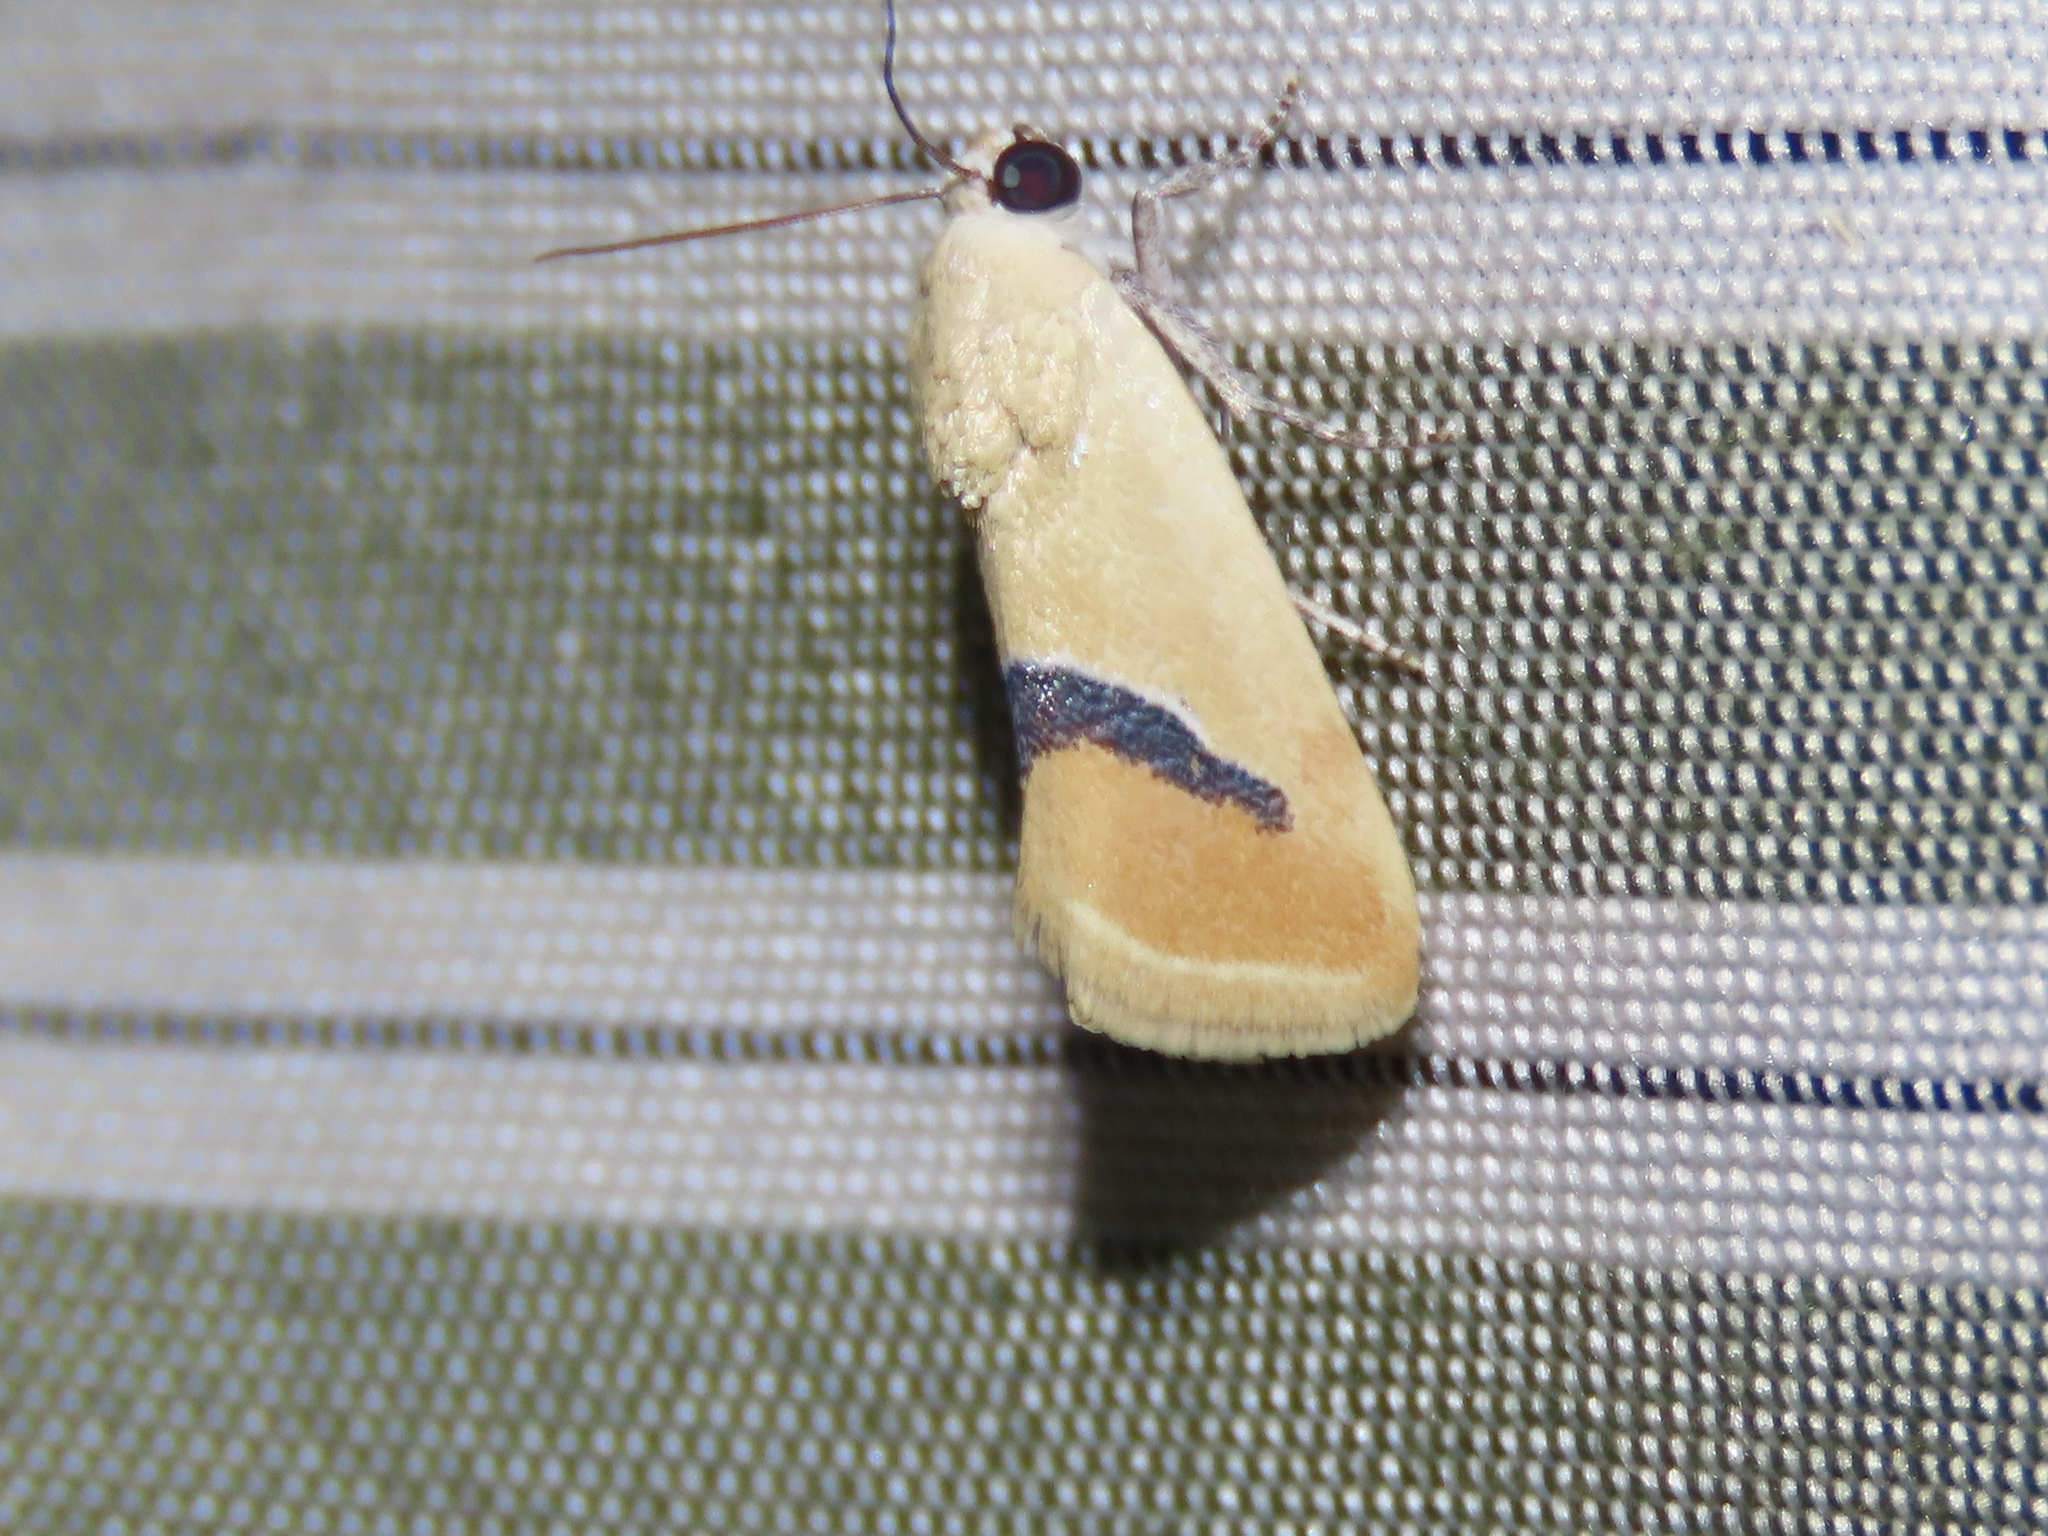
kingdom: Animalia
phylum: Arthropoda
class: Insecta
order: Lepidoptera
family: Noctuidae
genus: Ponometia
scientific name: Ponometia venustula
